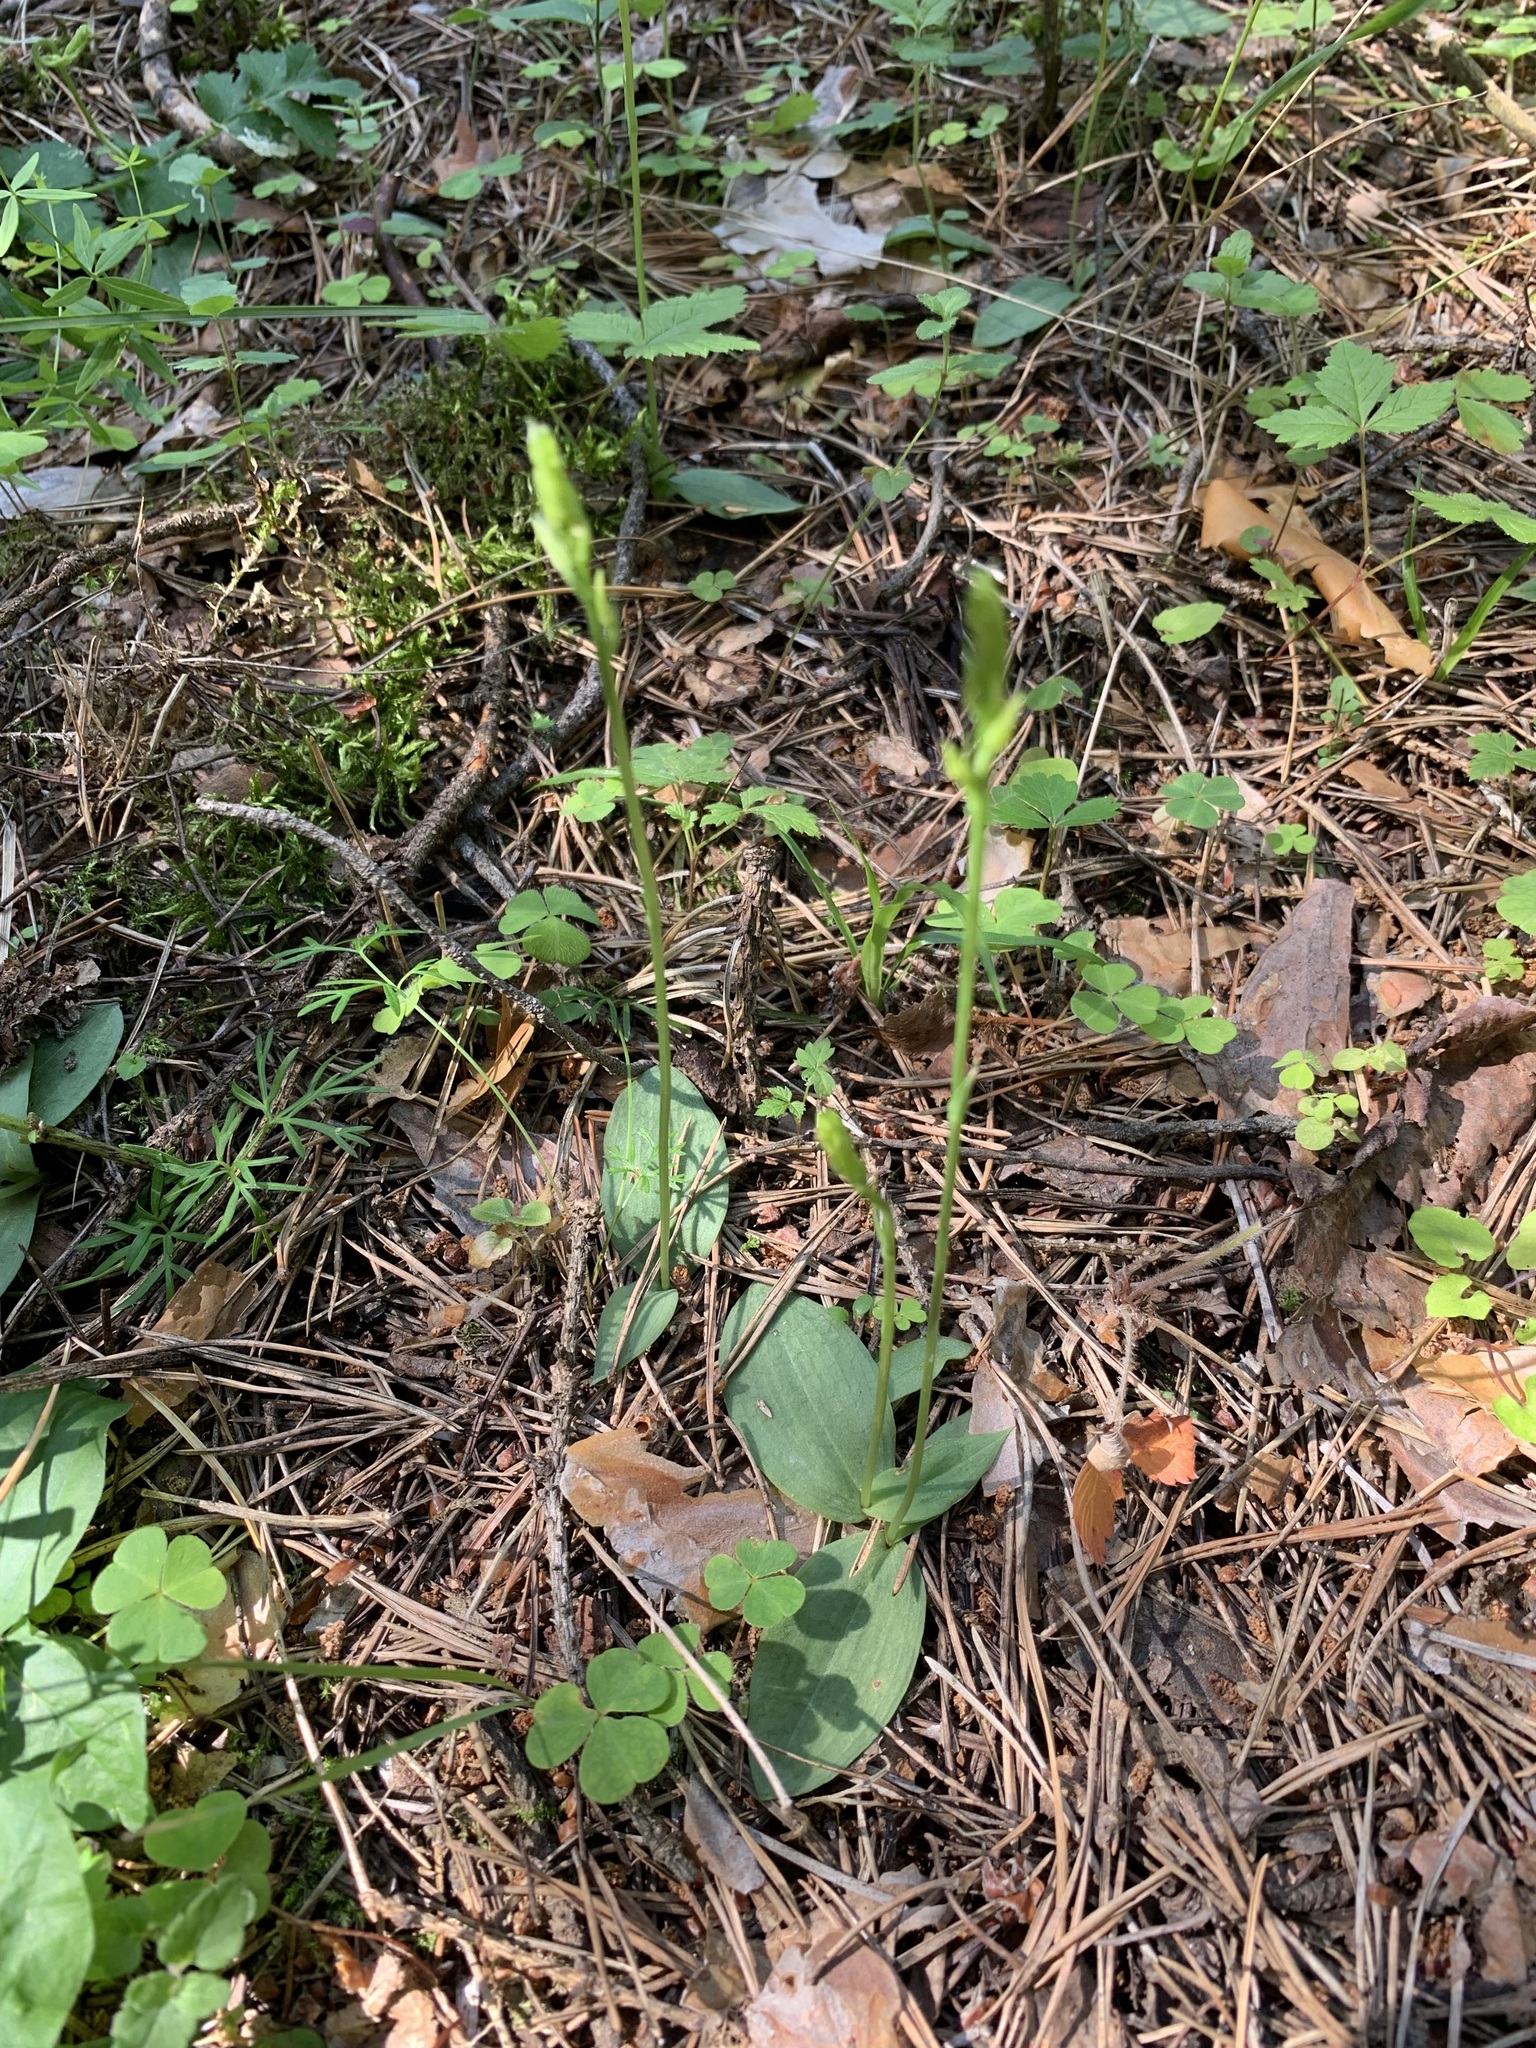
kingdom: Plantae
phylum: Tracheophyta
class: Liliopsida
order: Asparagales
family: Orchidaceae
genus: Hemipilia
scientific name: Hemipilia cucullata
